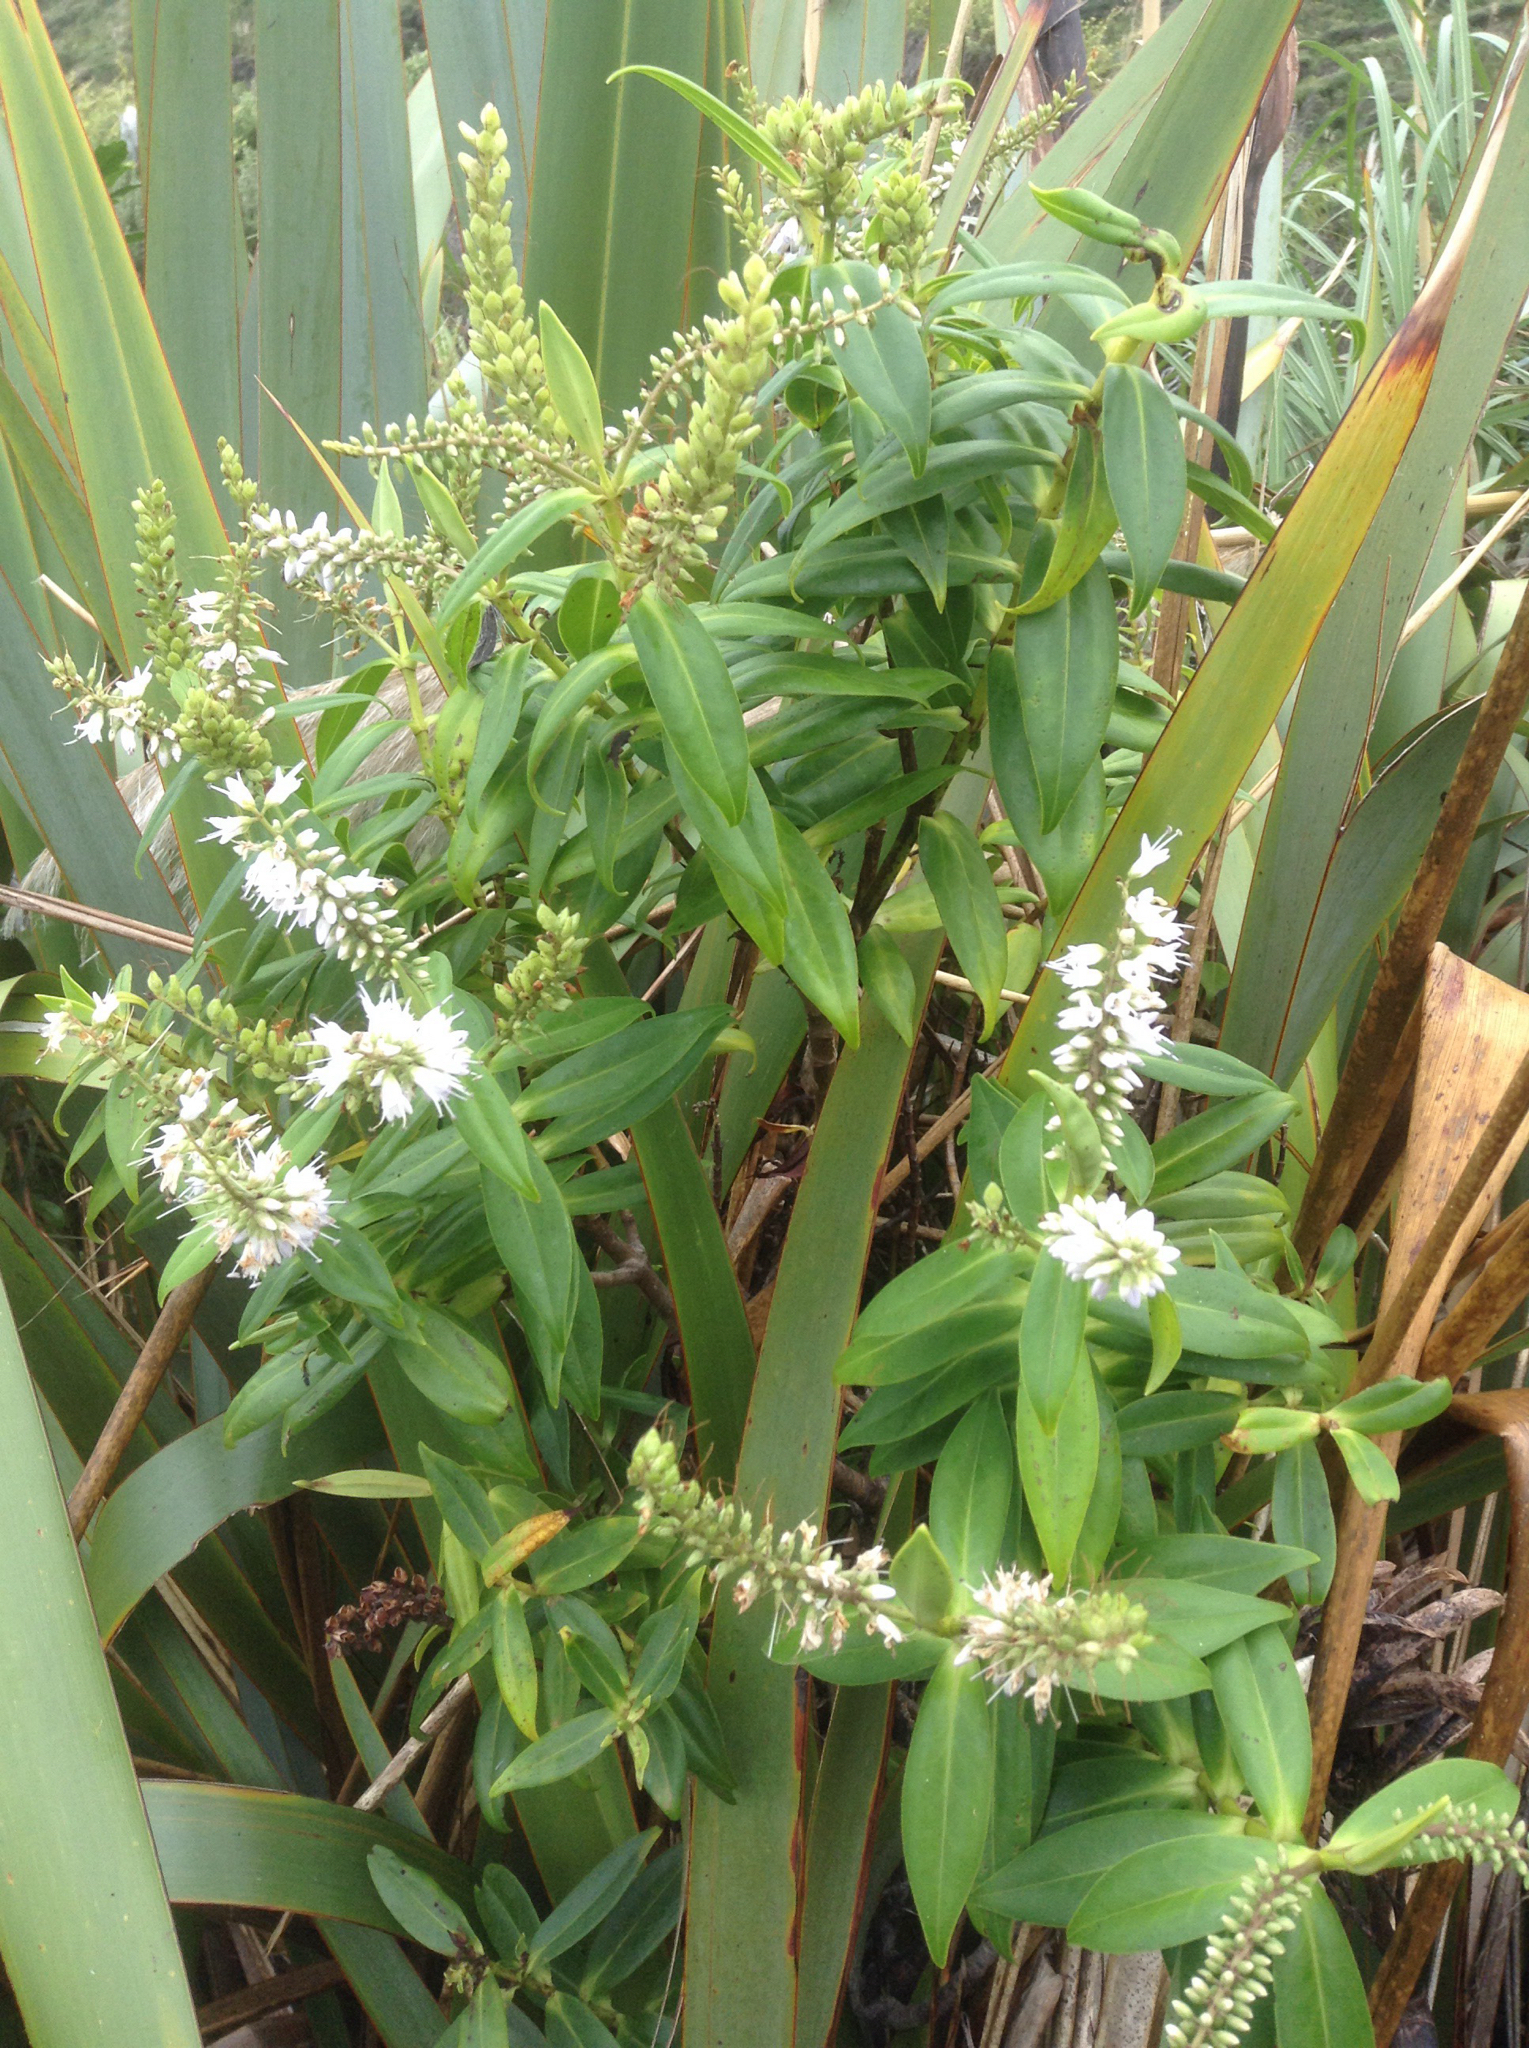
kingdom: Plantae
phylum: Tracheophyta
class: Magnoliopsida
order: Lamiales
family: Plantaginaceae
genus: Veronica
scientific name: Veronica macrocarpa
